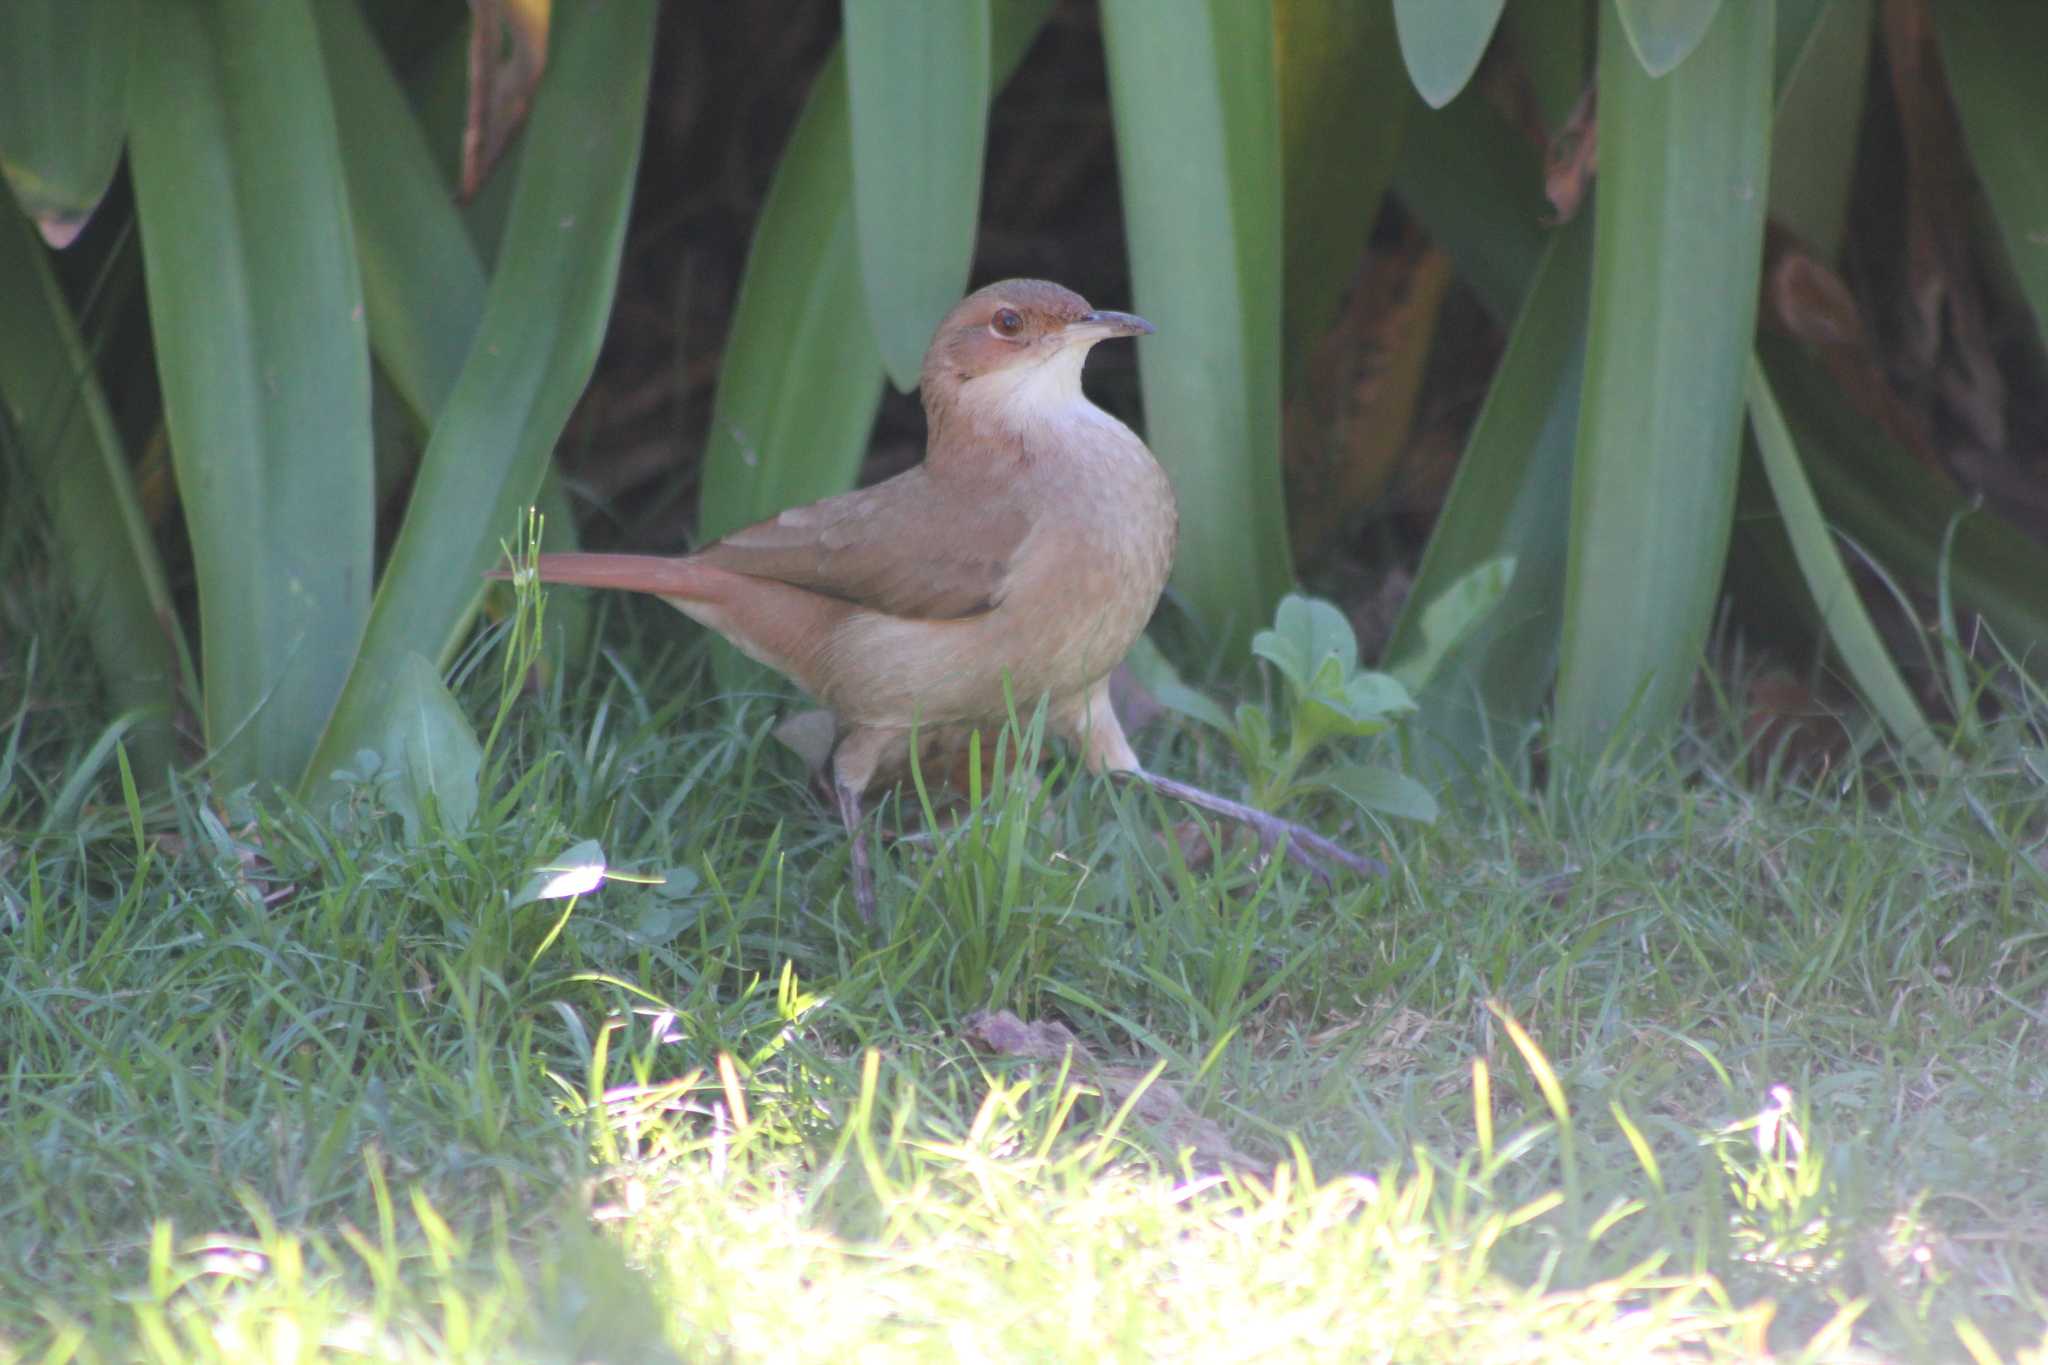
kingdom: Animalia
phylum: Chordata
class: Aves
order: Passeriformes
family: Furnariidae
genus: Furnarius
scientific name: Furnarius rufus
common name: Rufous hornero
